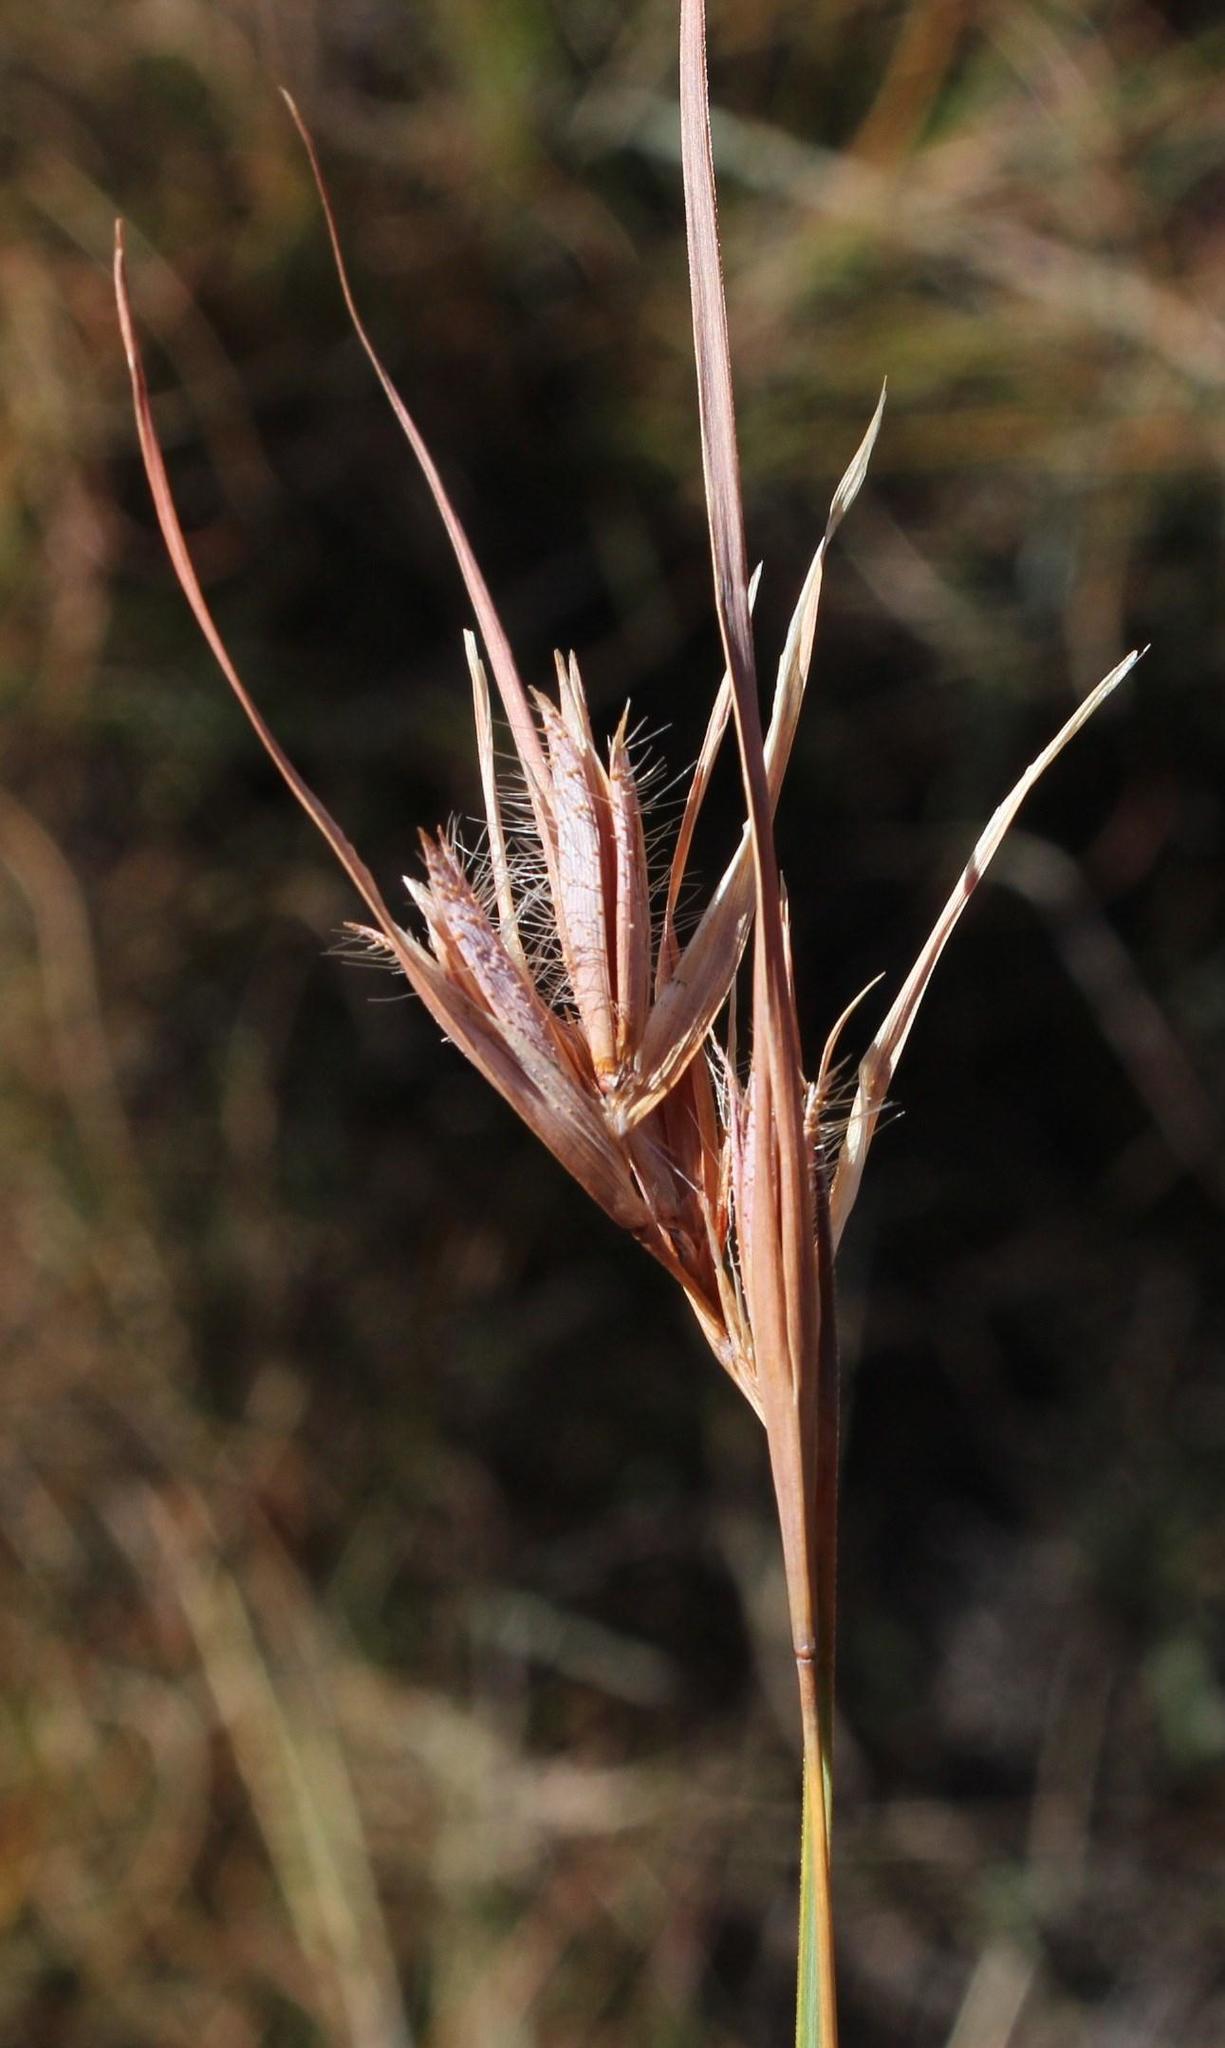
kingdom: Plantae
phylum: Tracheophyta
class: Liliopsida
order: Poales
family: Poaceae
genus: Themeda
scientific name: Themeda triandra
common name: Kangaroo grass
